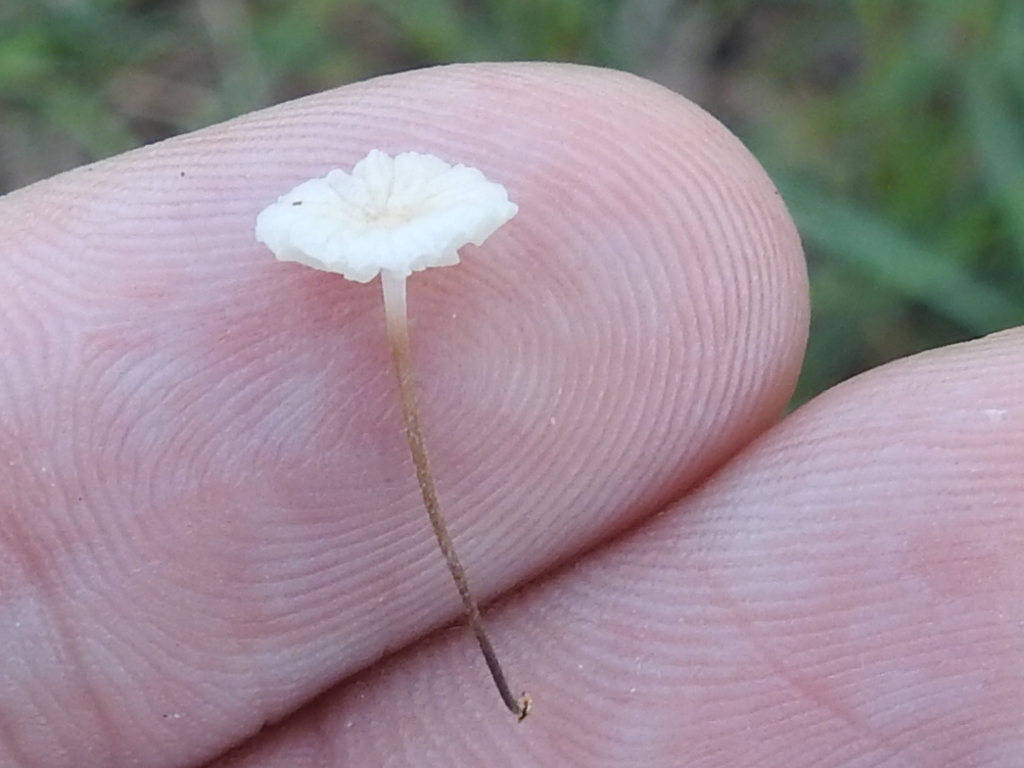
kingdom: Fungi
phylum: Basidiomycota
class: Agaricomycetes
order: Agaricales
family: Marasmiaceae
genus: Marasmius
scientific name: Marasmius capillaris
